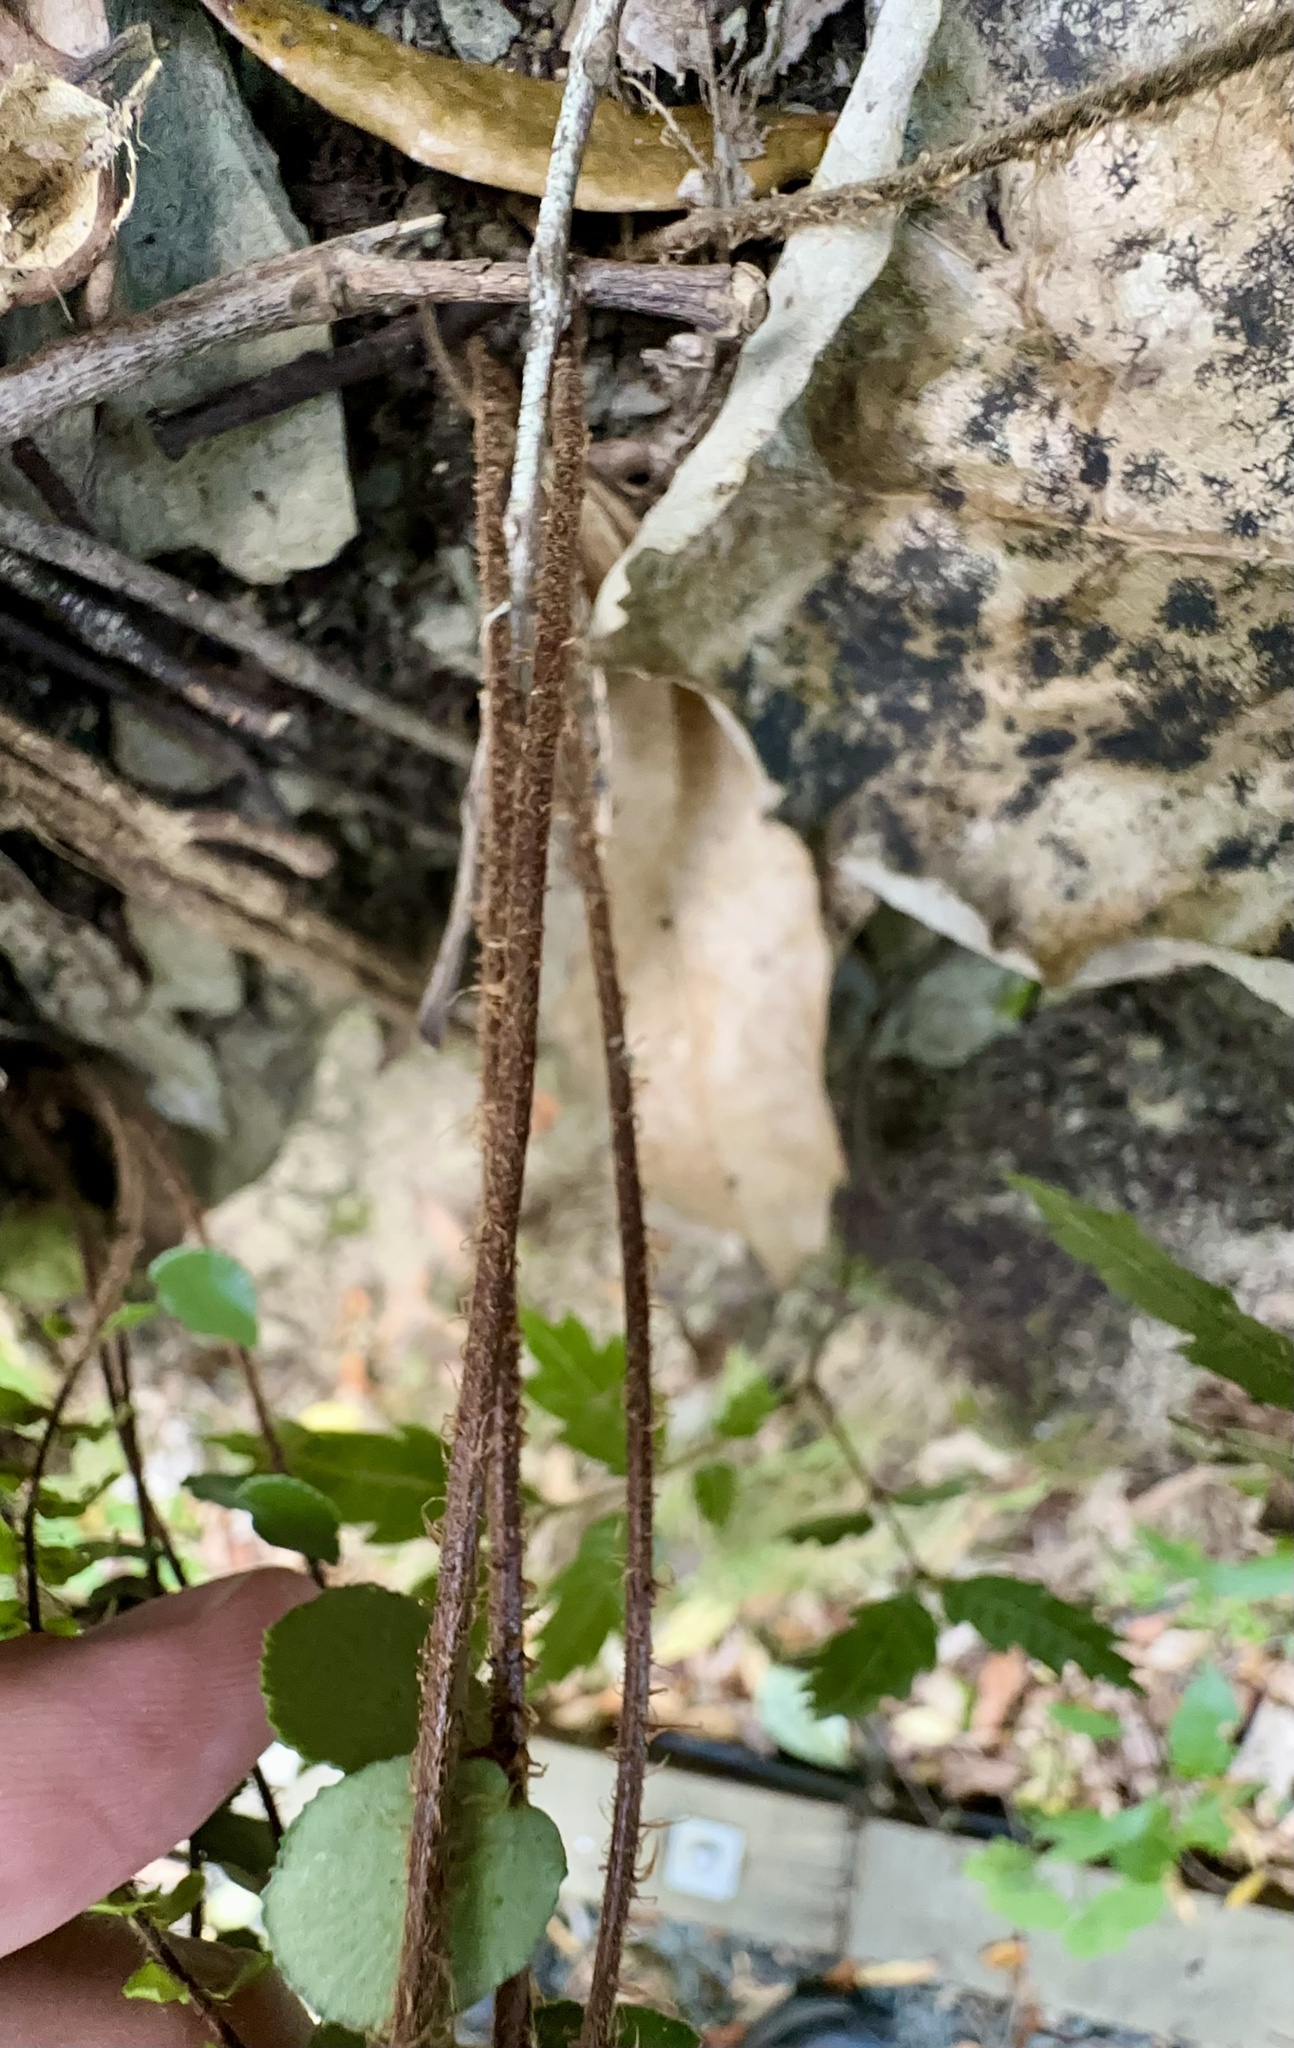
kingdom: Plantae
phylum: Tracheophyta
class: Polypodiopsida
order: Polypodiales
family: Pteridaceae
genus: Pellaea
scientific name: Pellaea rotundifolia
